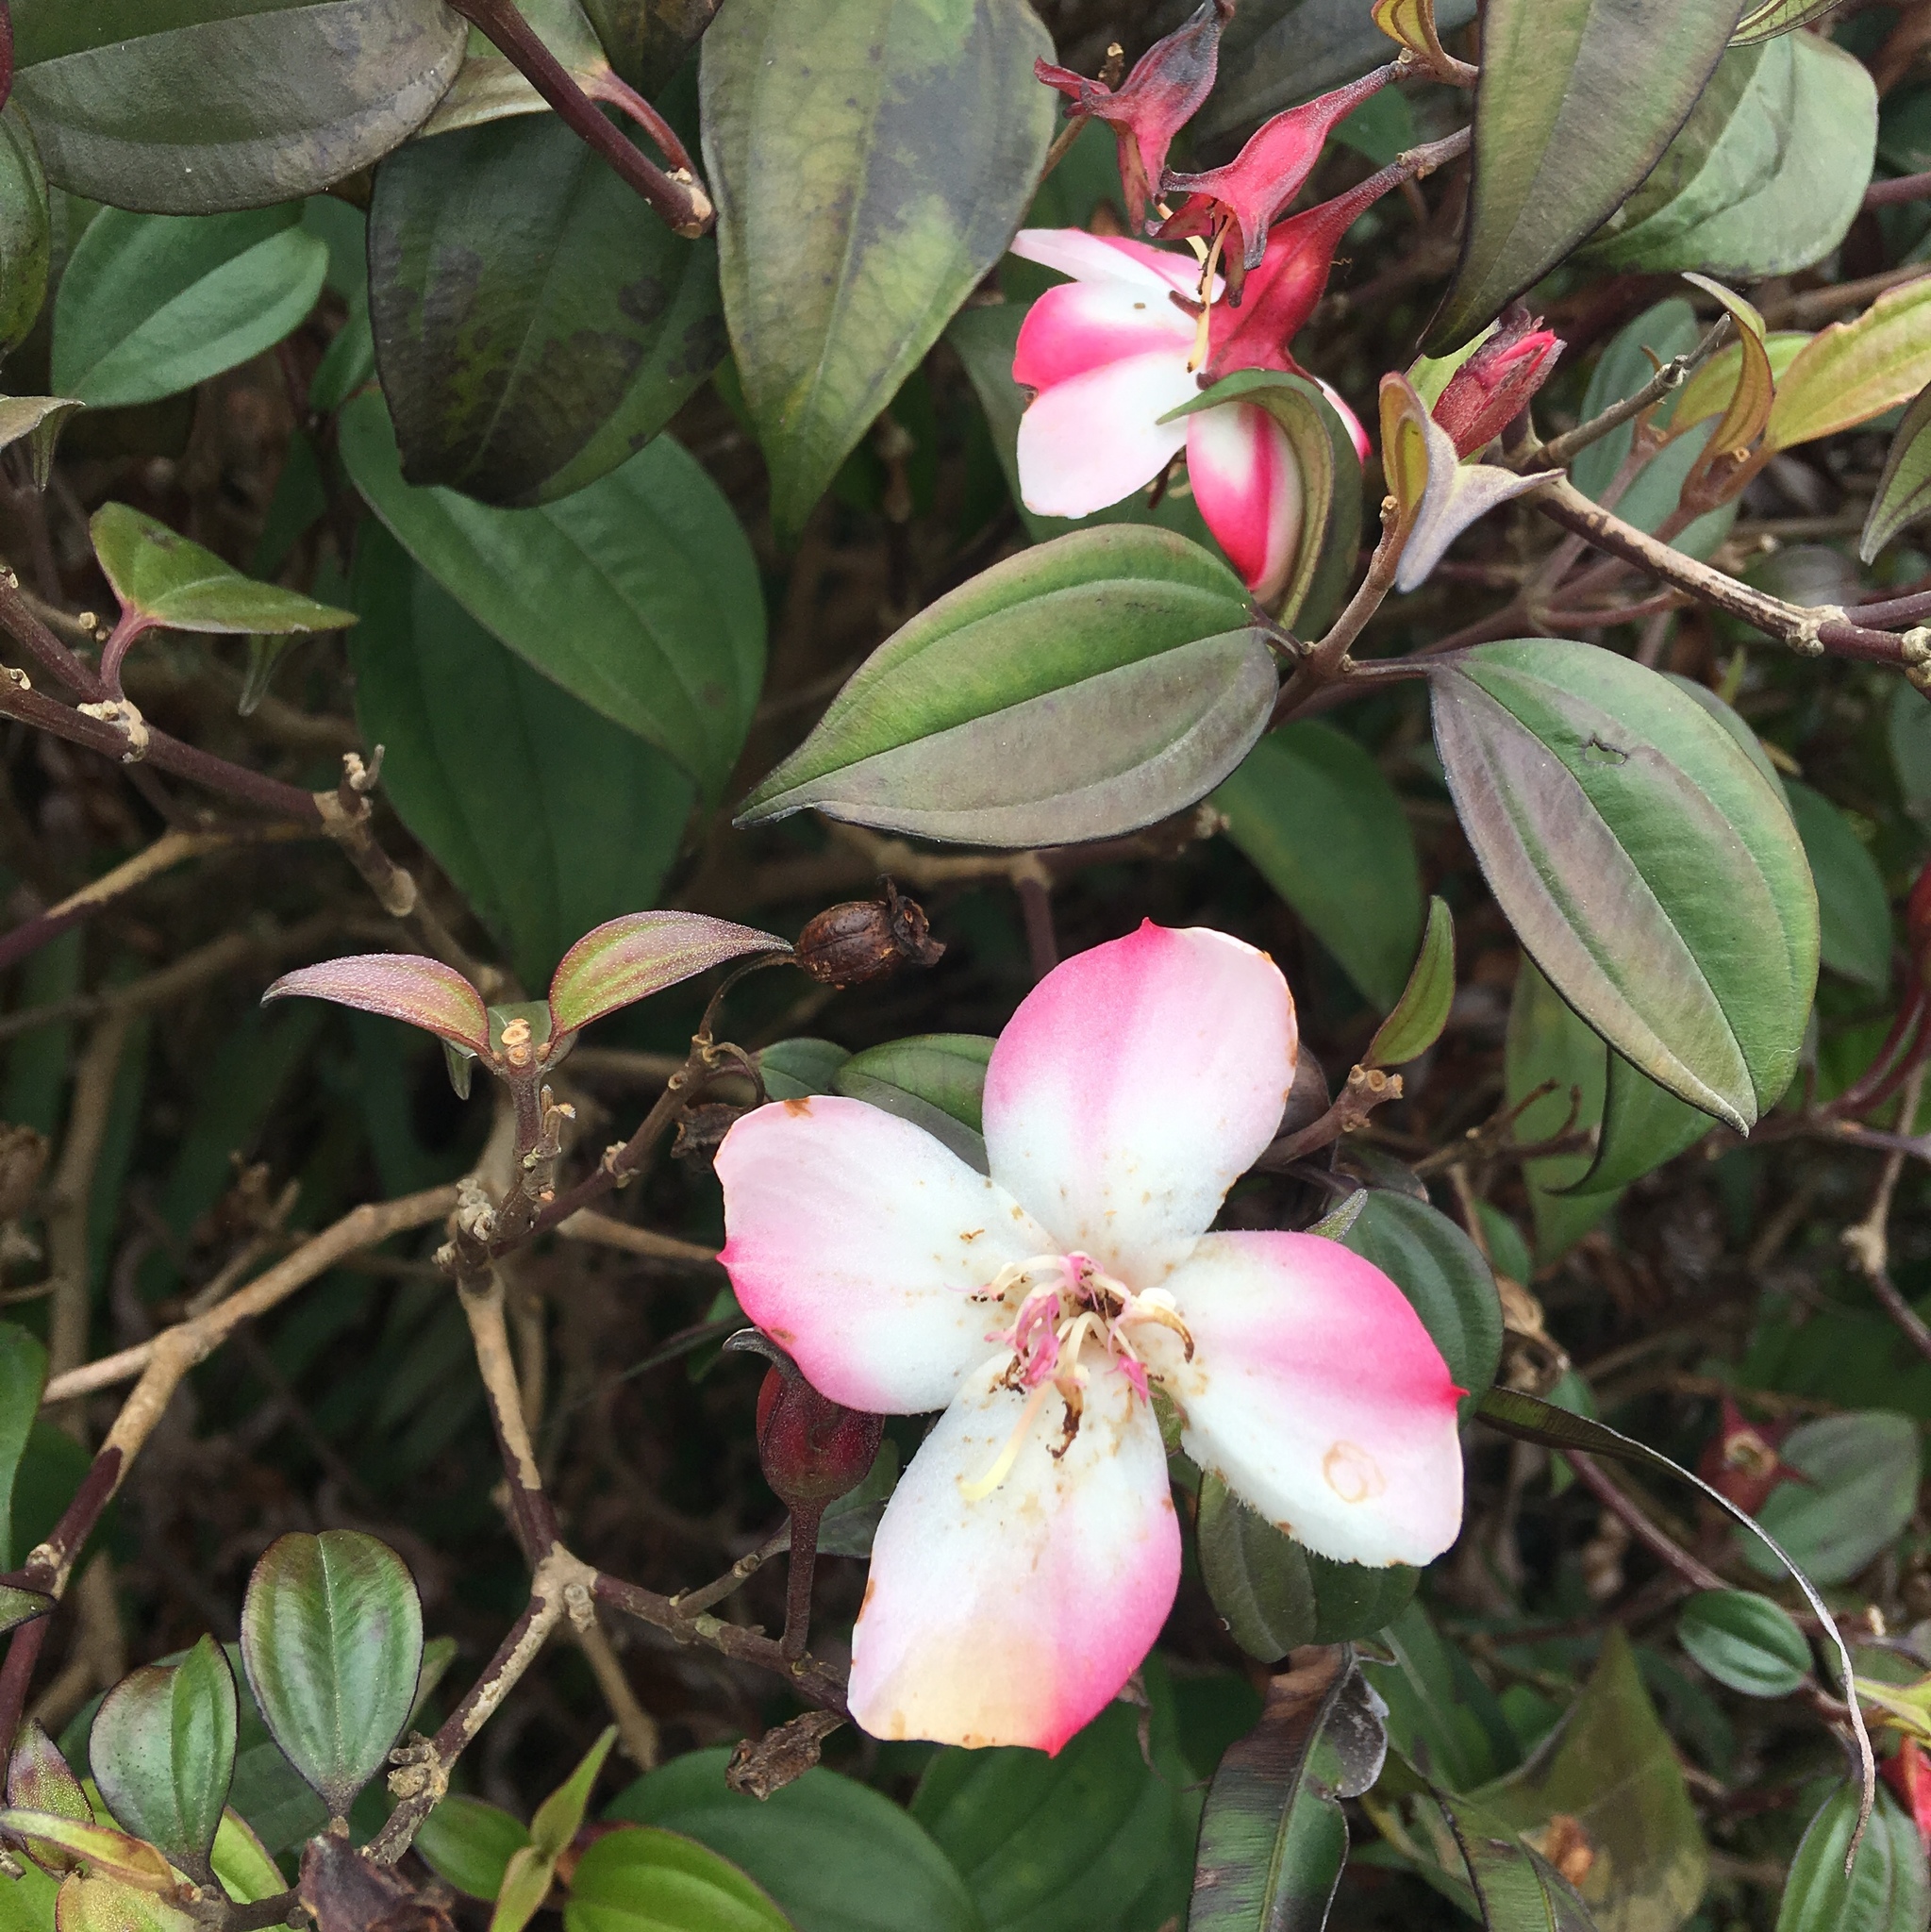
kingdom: Plantae
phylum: Tracheophyta
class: Magnoliopsida
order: Myrtales
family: Melastomataceae
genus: Barthea
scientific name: Barthea barthei
